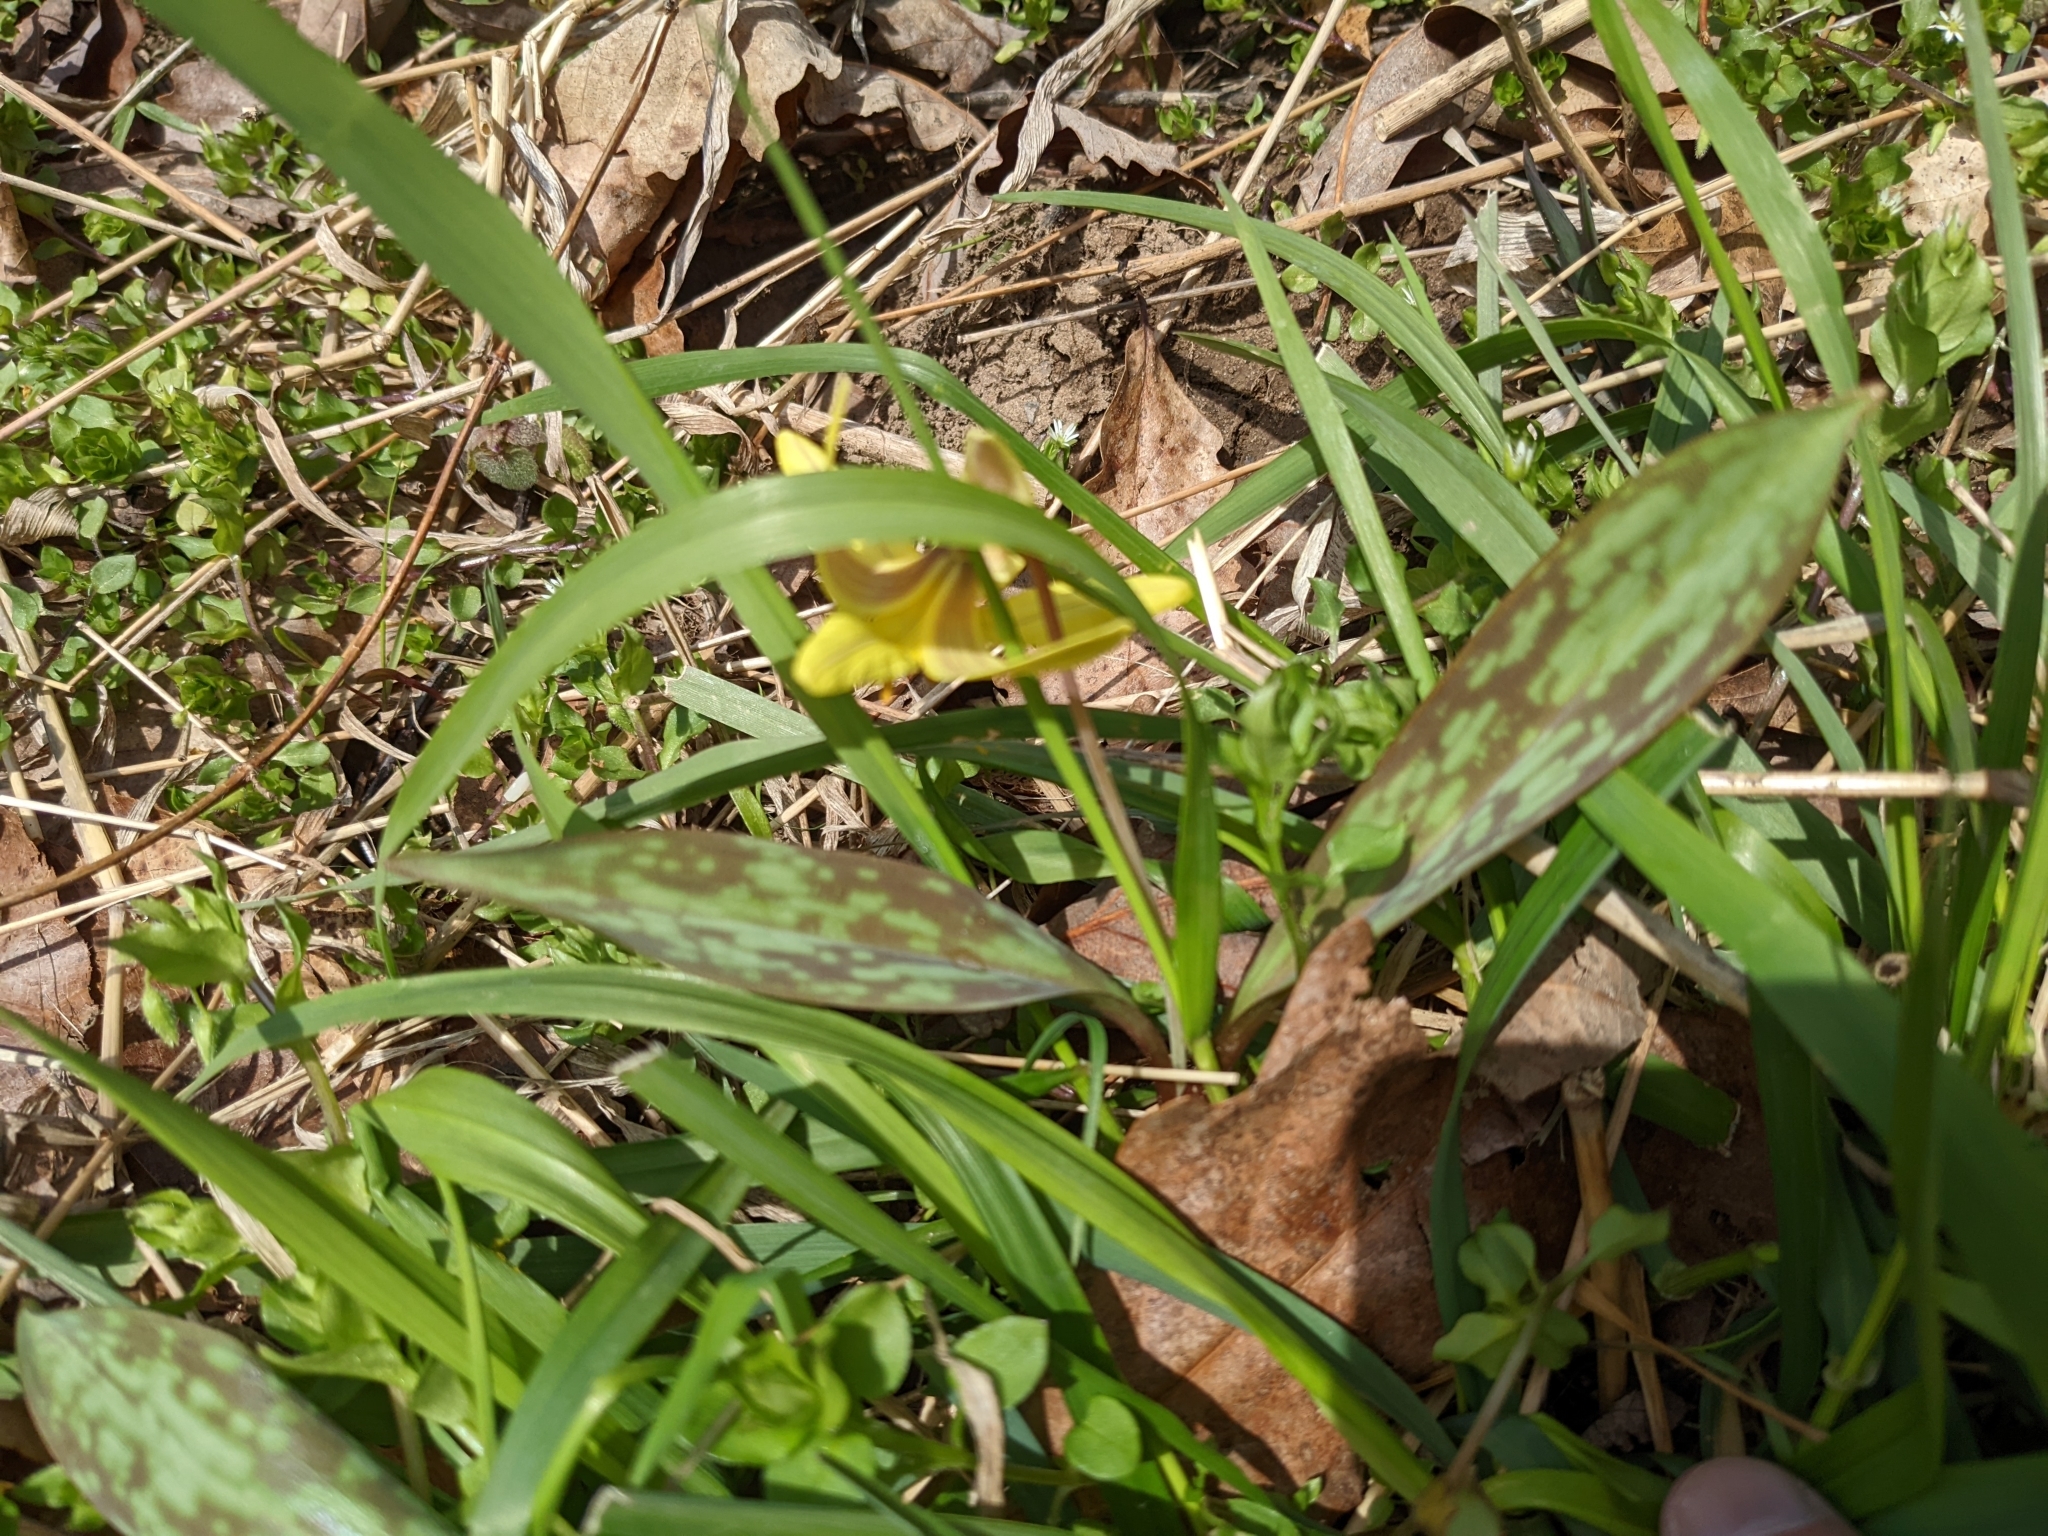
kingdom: Plantae
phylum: Tracheophyta
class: Liliopsida
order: Liliales
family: Liliaceae
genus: Erythronium
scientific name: Erythronium americanum
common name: Yellow adder's-tongue
